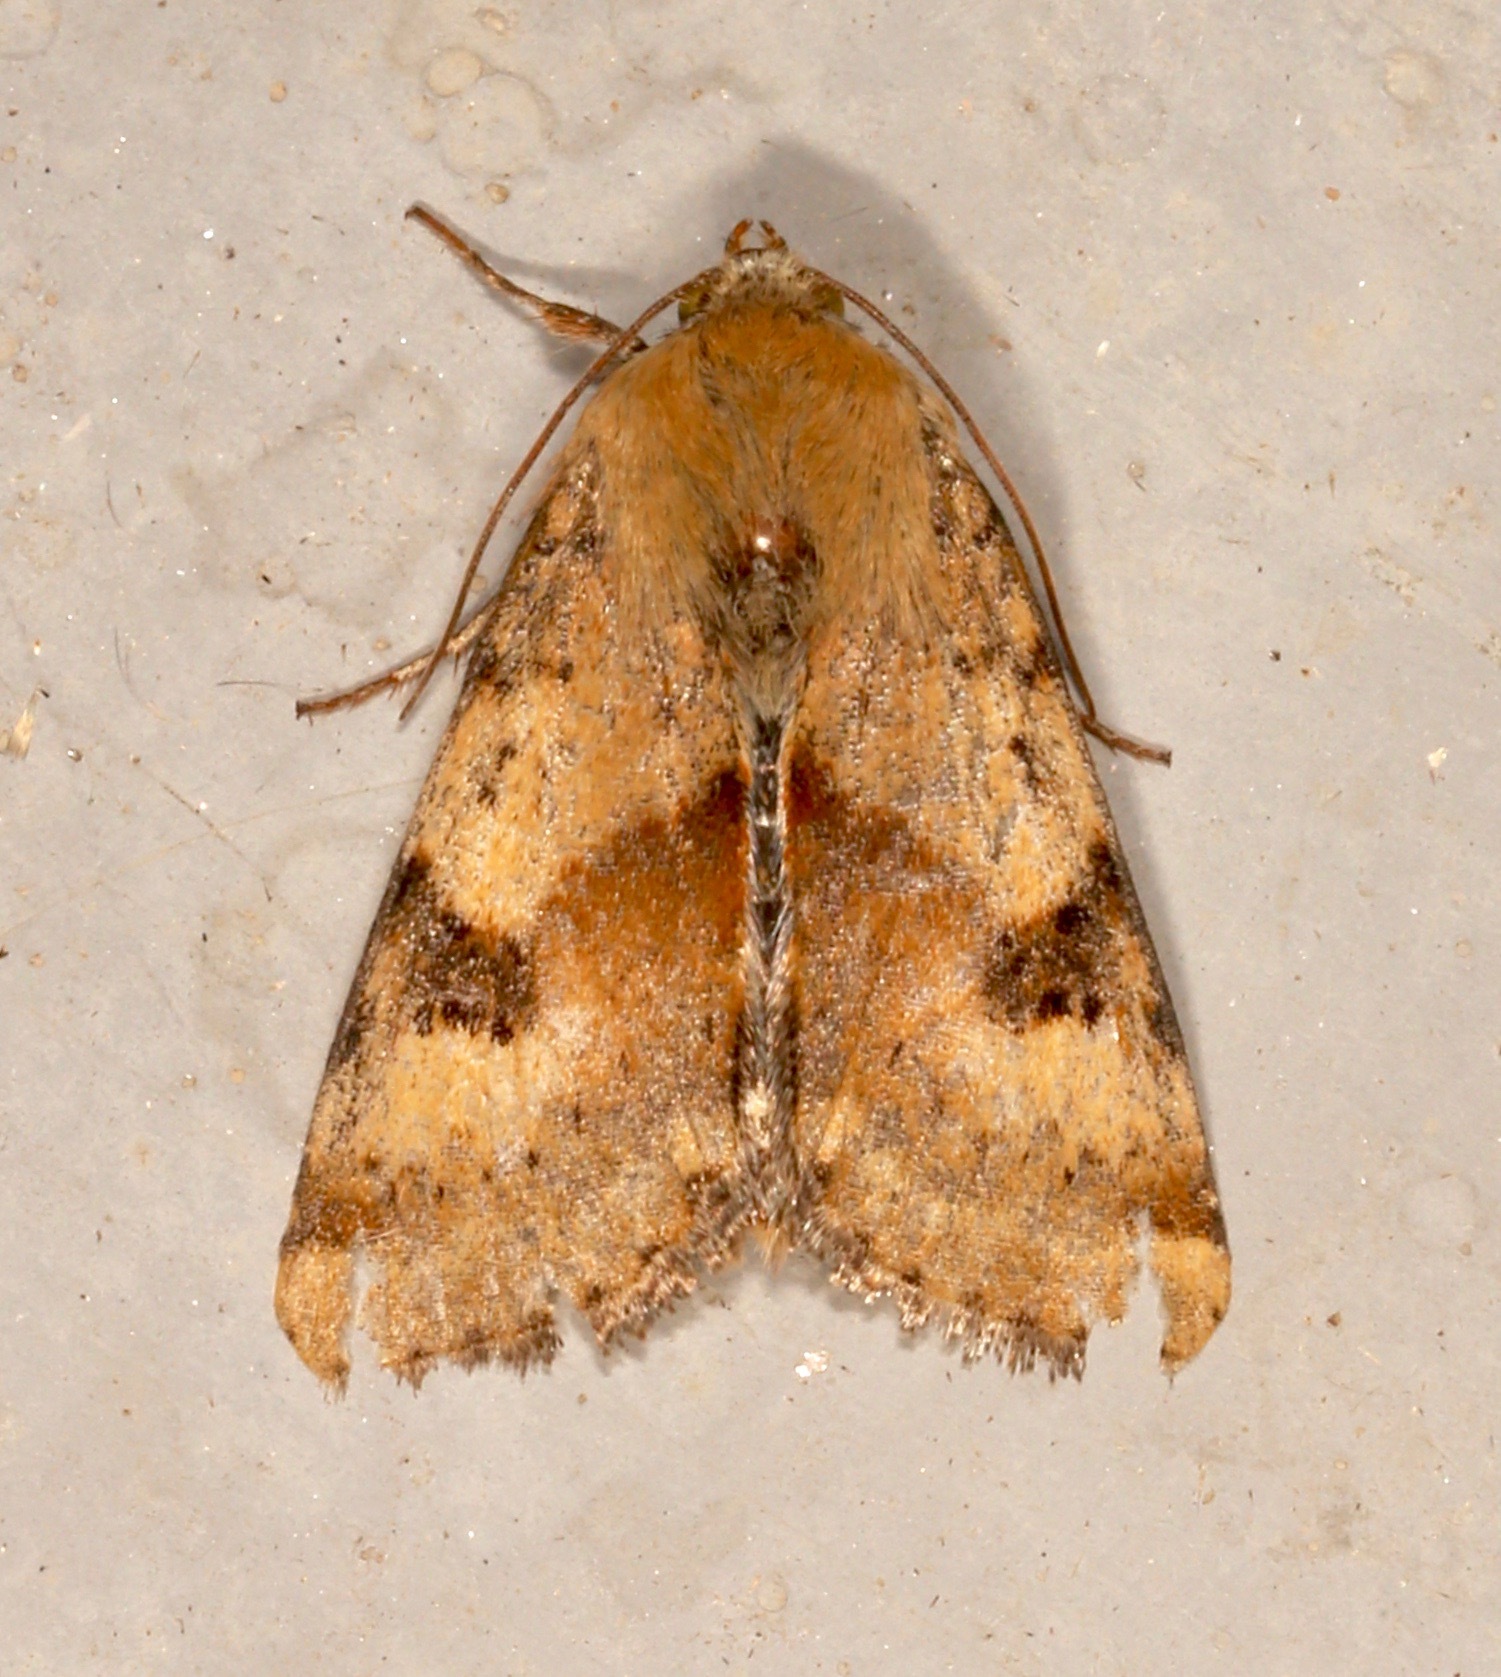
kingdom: Animalia
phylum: Arthropoda
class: Insecta
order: Lepidoptera
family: Noctuidae
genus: Heliothis
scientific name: Heliothis phloxiphaga
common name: Darker spotted straw moth
